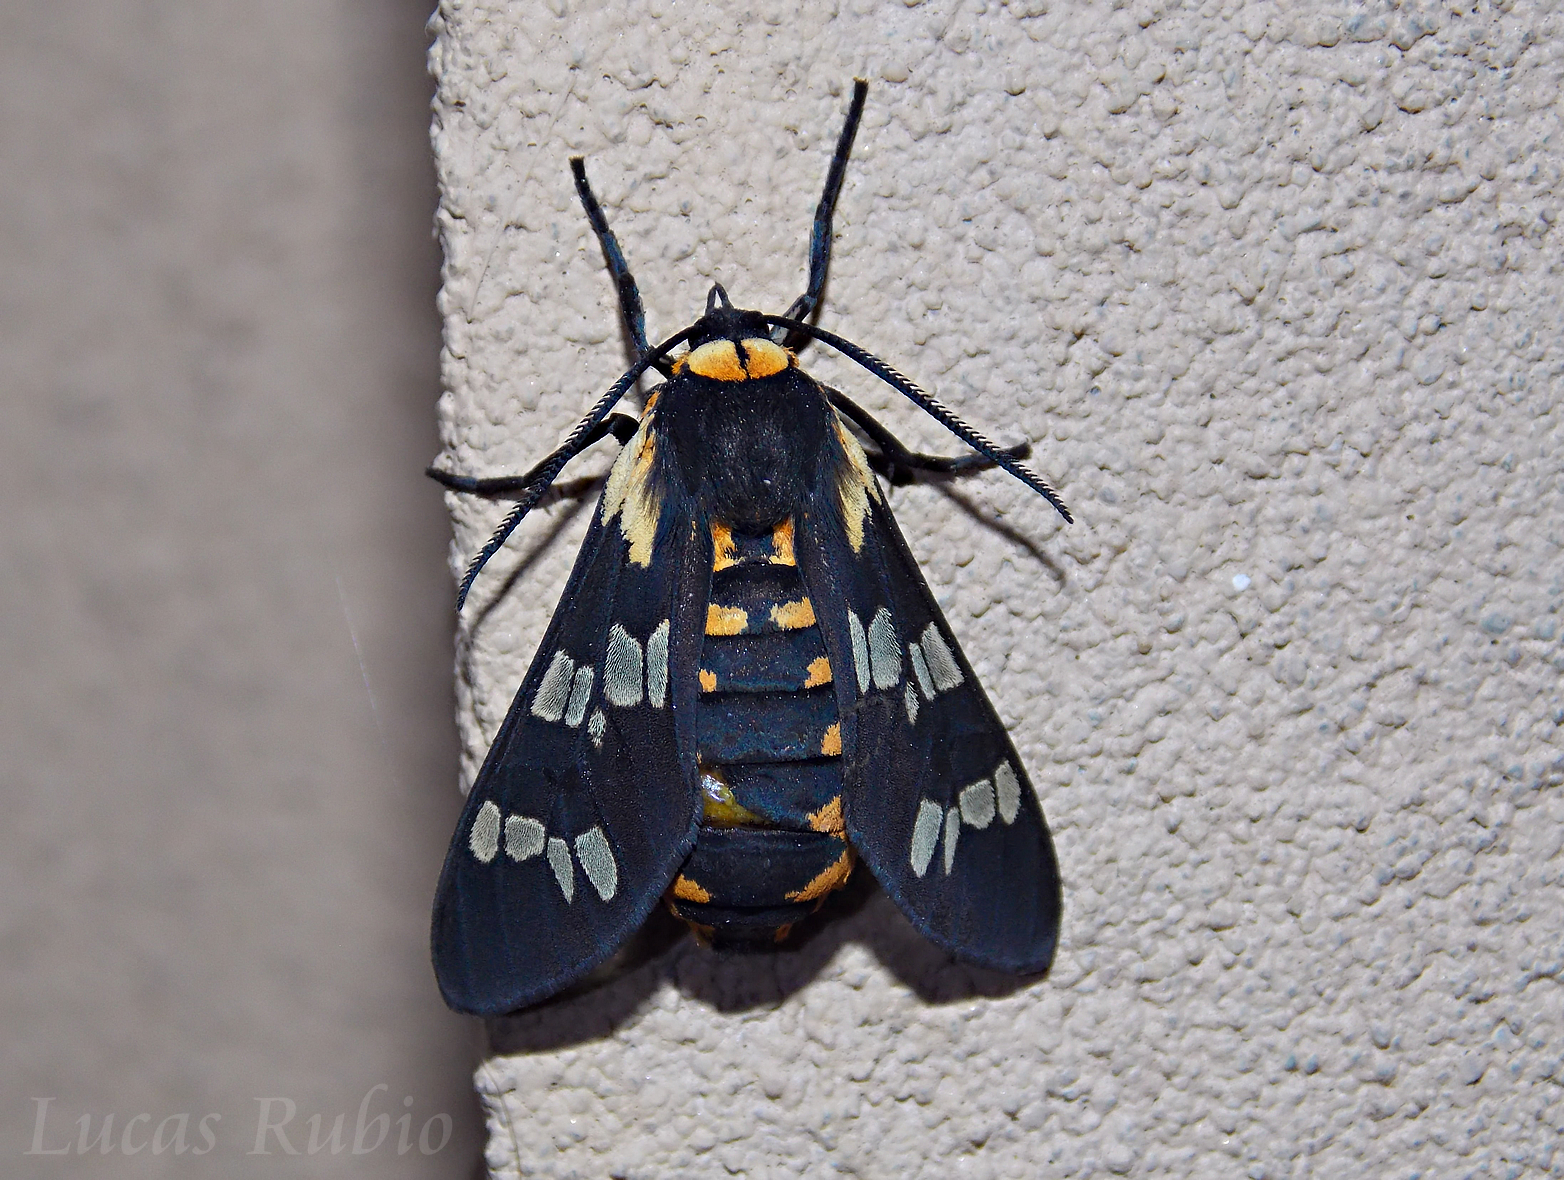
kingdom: Animalia
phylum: Arthropoda
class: Insecta
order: Lepidoptera
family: Erebidae
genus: Eurata
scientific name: Eurata
